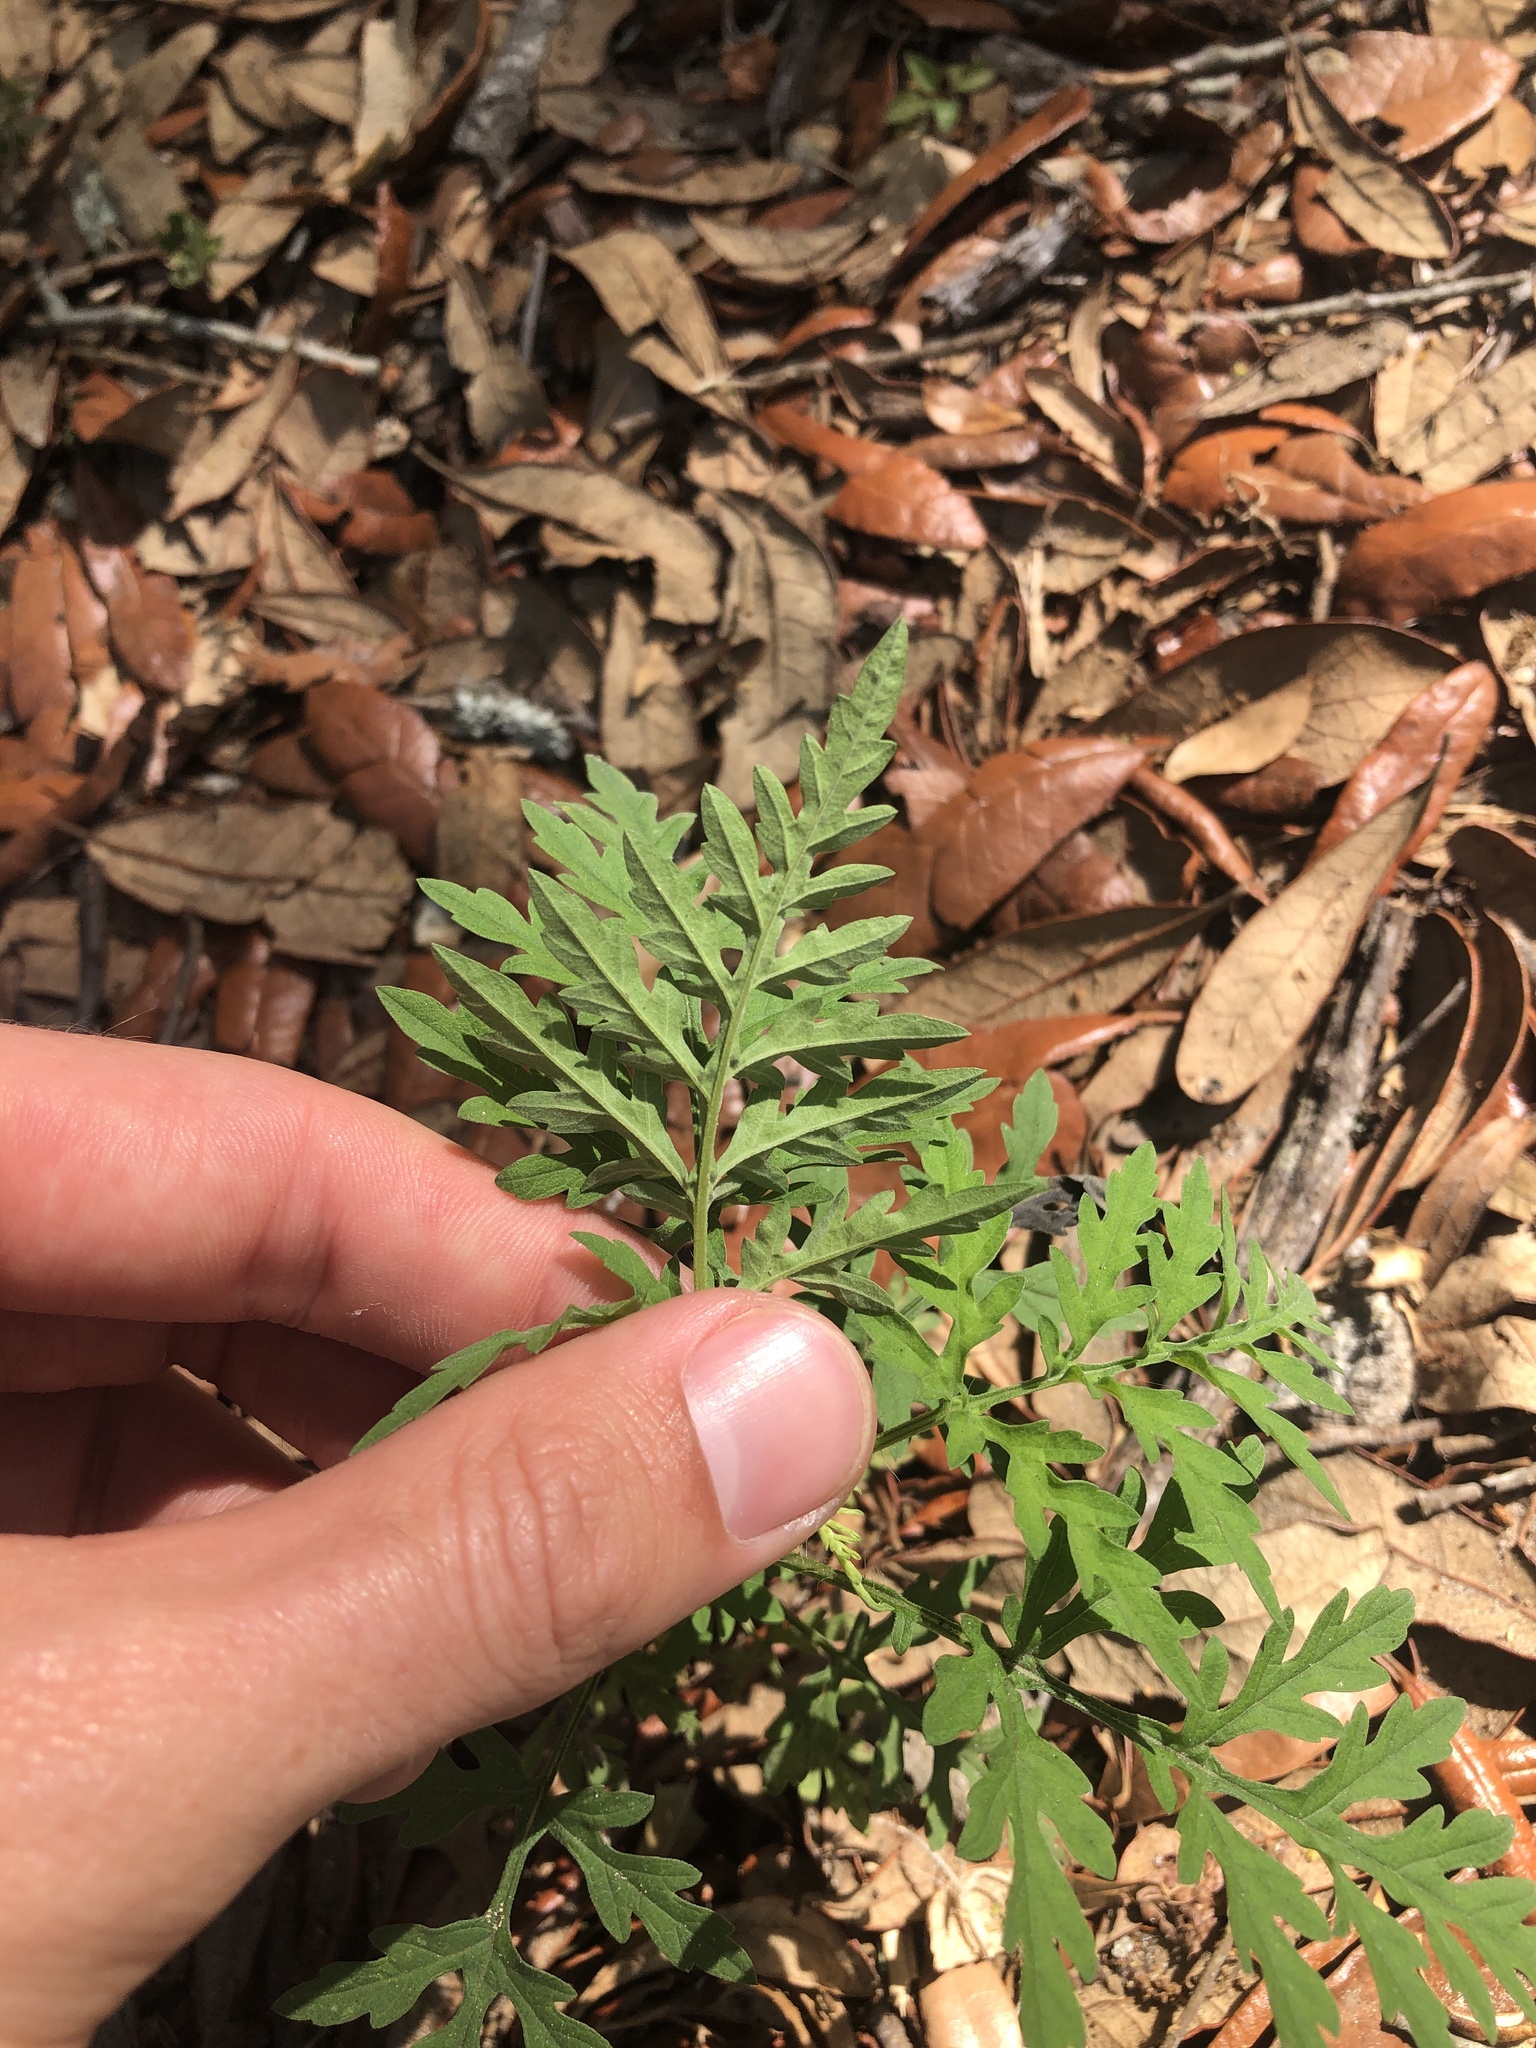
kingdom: Plantae
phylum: Tracheophyta
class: Magnoliopsida
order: Asterales
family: Asteraceae
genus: Ambrosia
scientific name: Ambrosia artemisiifolia
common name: Annual ragweed
